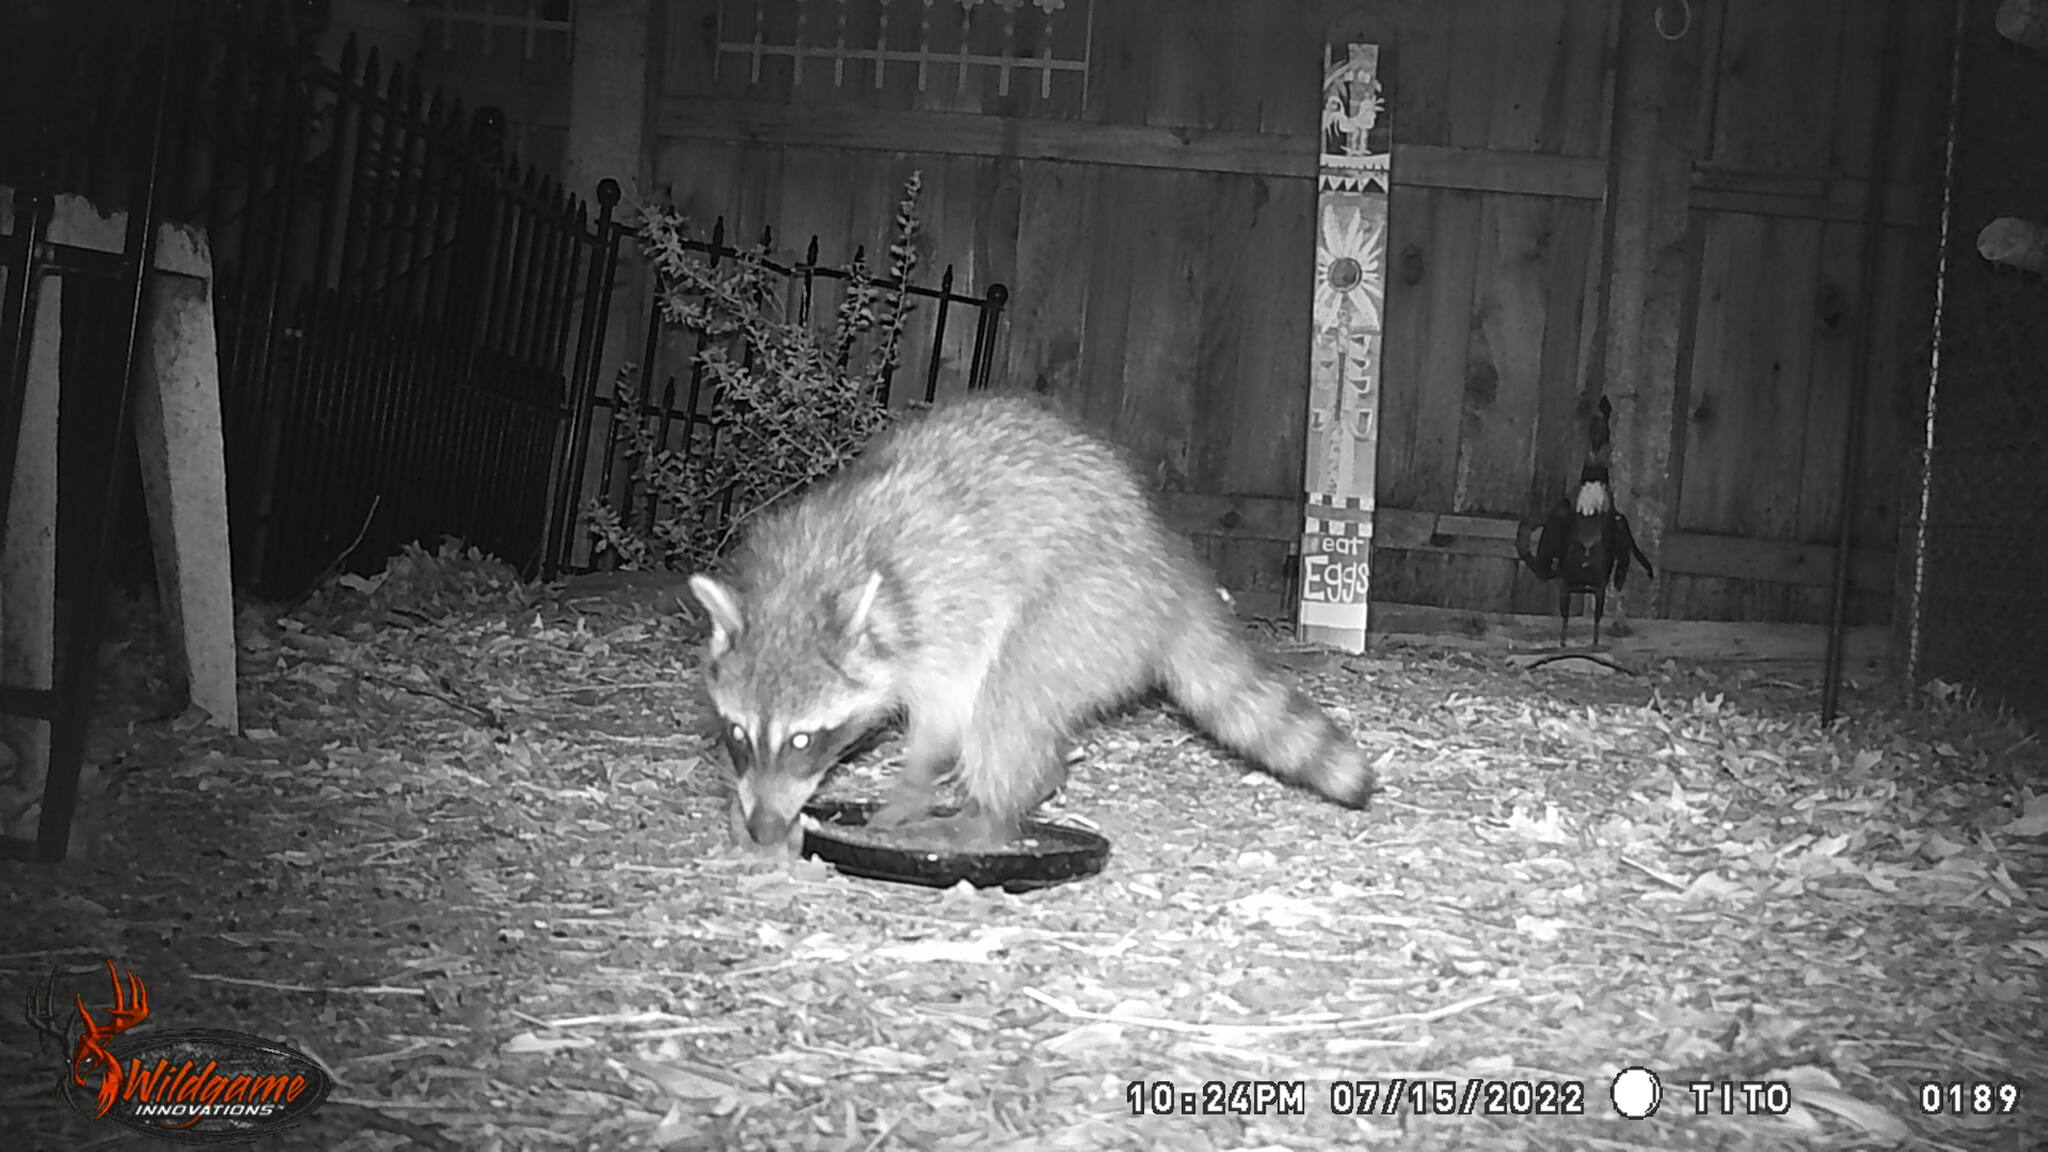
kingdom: Animalia
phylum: Chordata
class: Mammalia
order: Carnivora
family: Procyonidae
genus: Procyon
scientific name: Procyon lotor
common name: Raccoon
